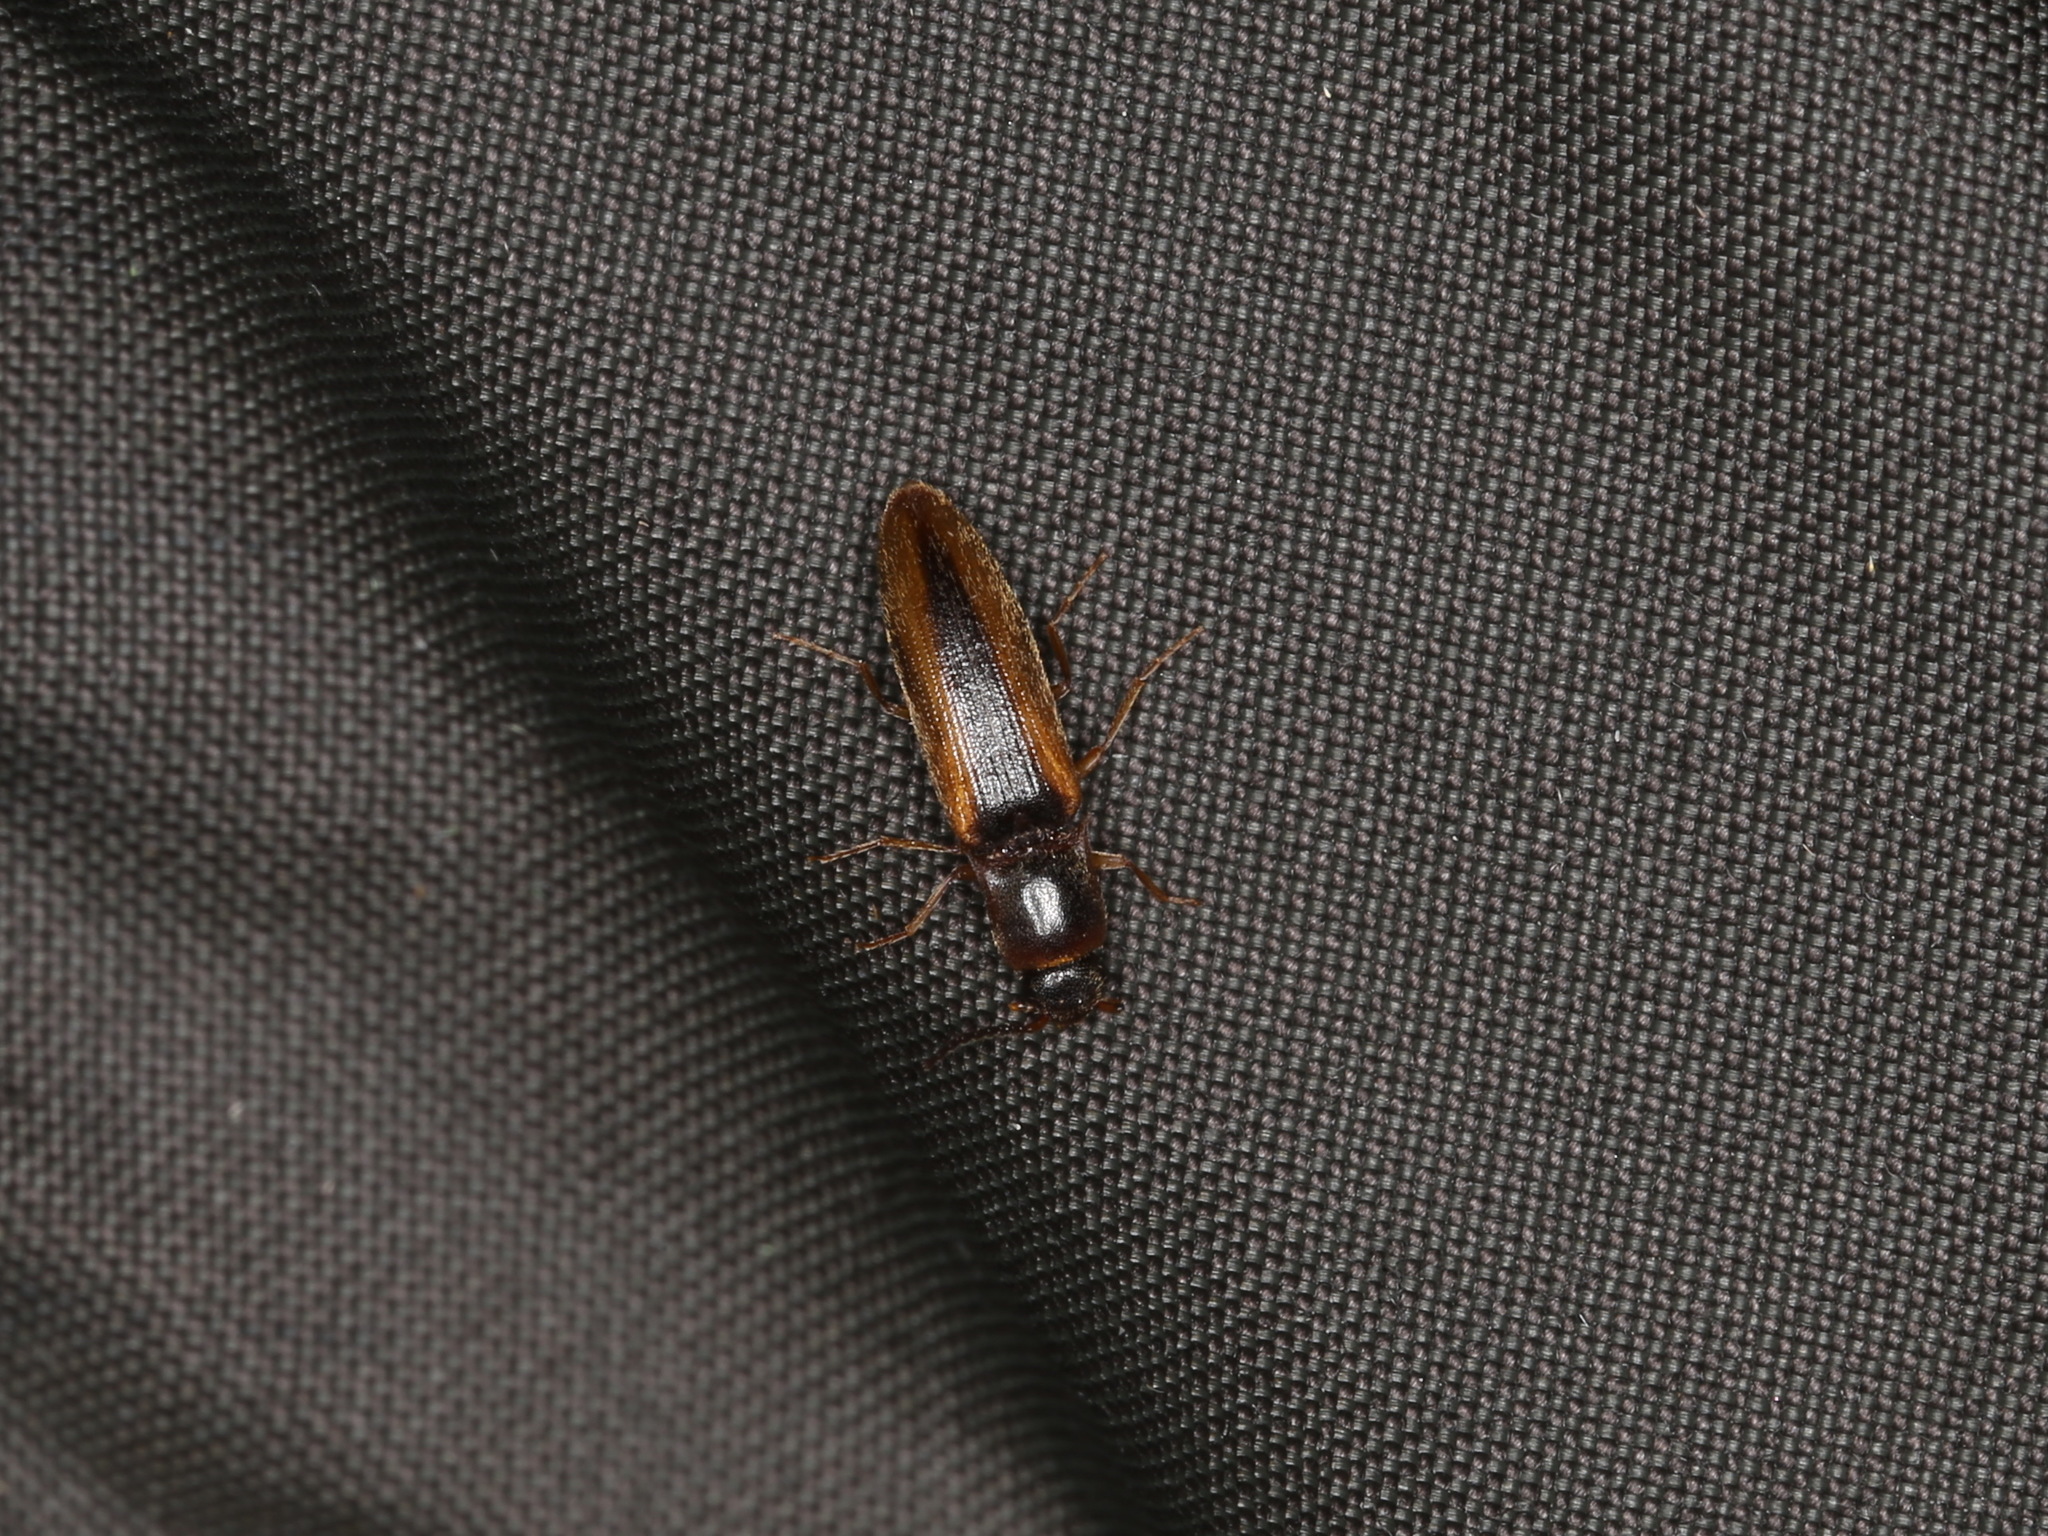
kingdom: Animalia
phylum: Arthropoda
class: Insecta
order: Coleoptera
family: Elateridae
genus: Dalopius
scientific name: Dalopius marginatus
